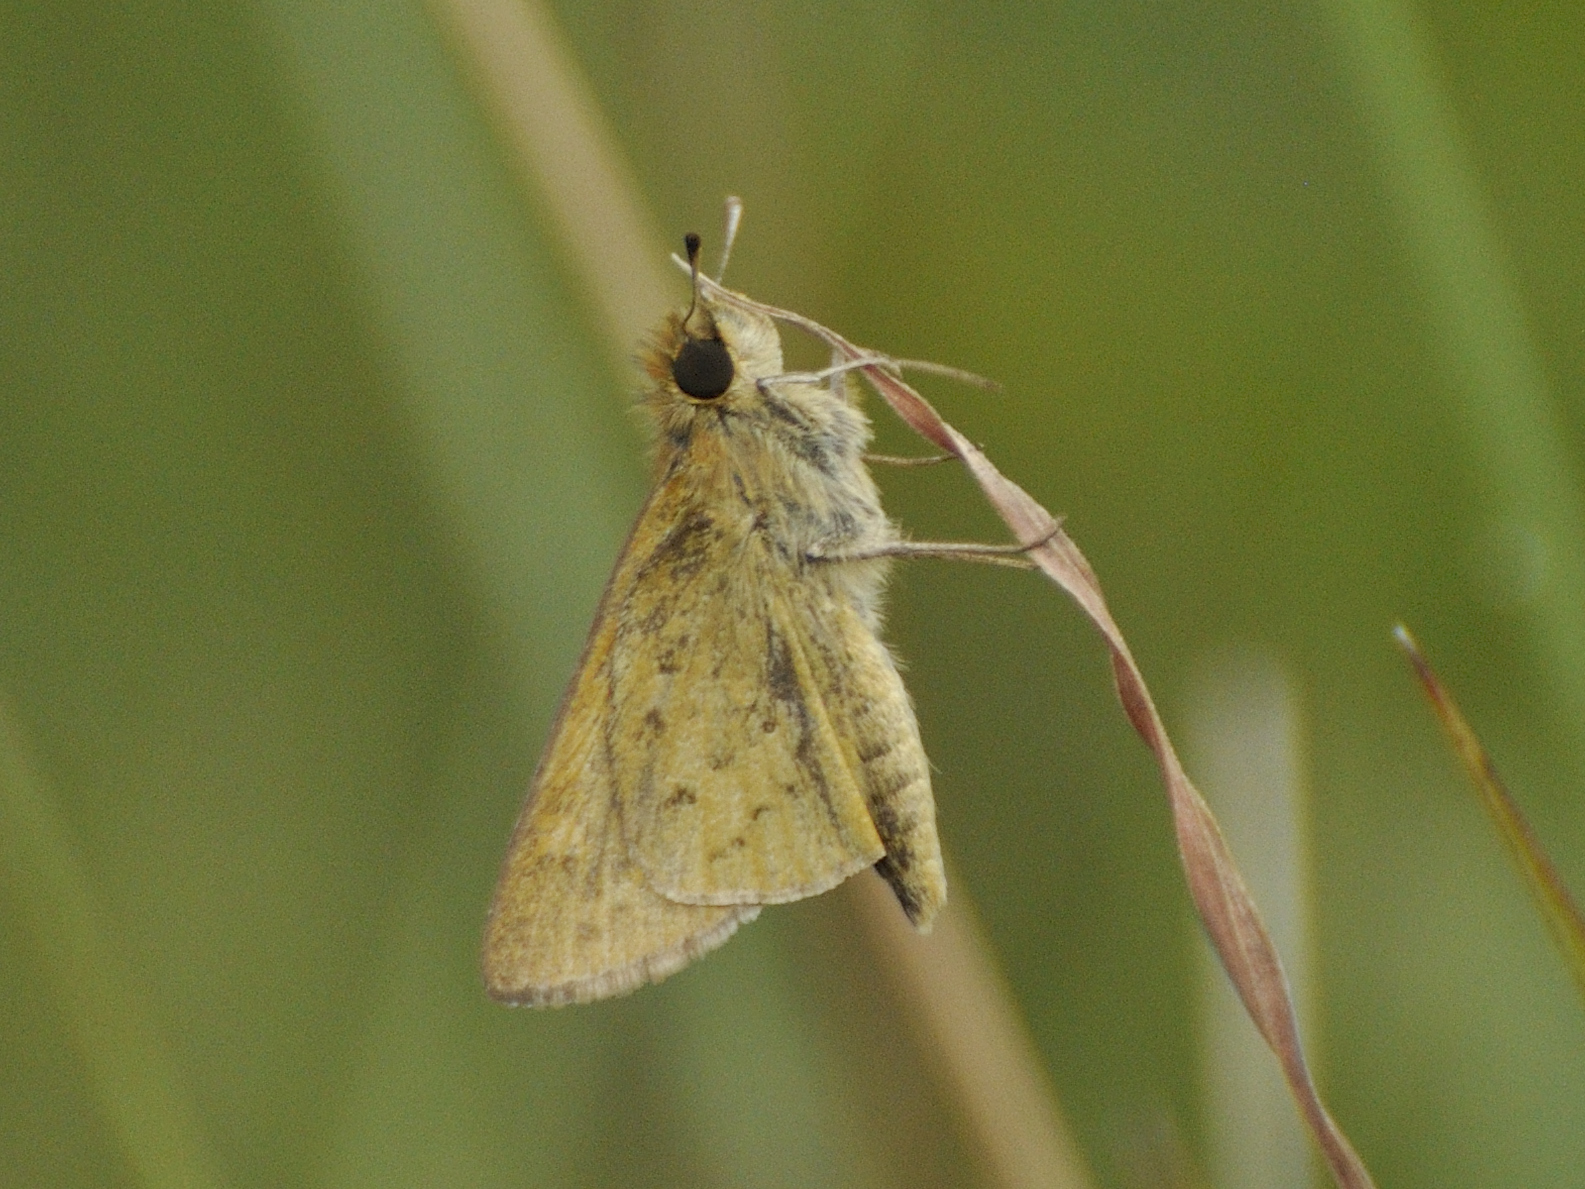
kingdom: Animalia
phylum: Arthropoda
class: Insecta
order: Hymenoptera
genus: Afrogenes
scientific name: Afrogenes
